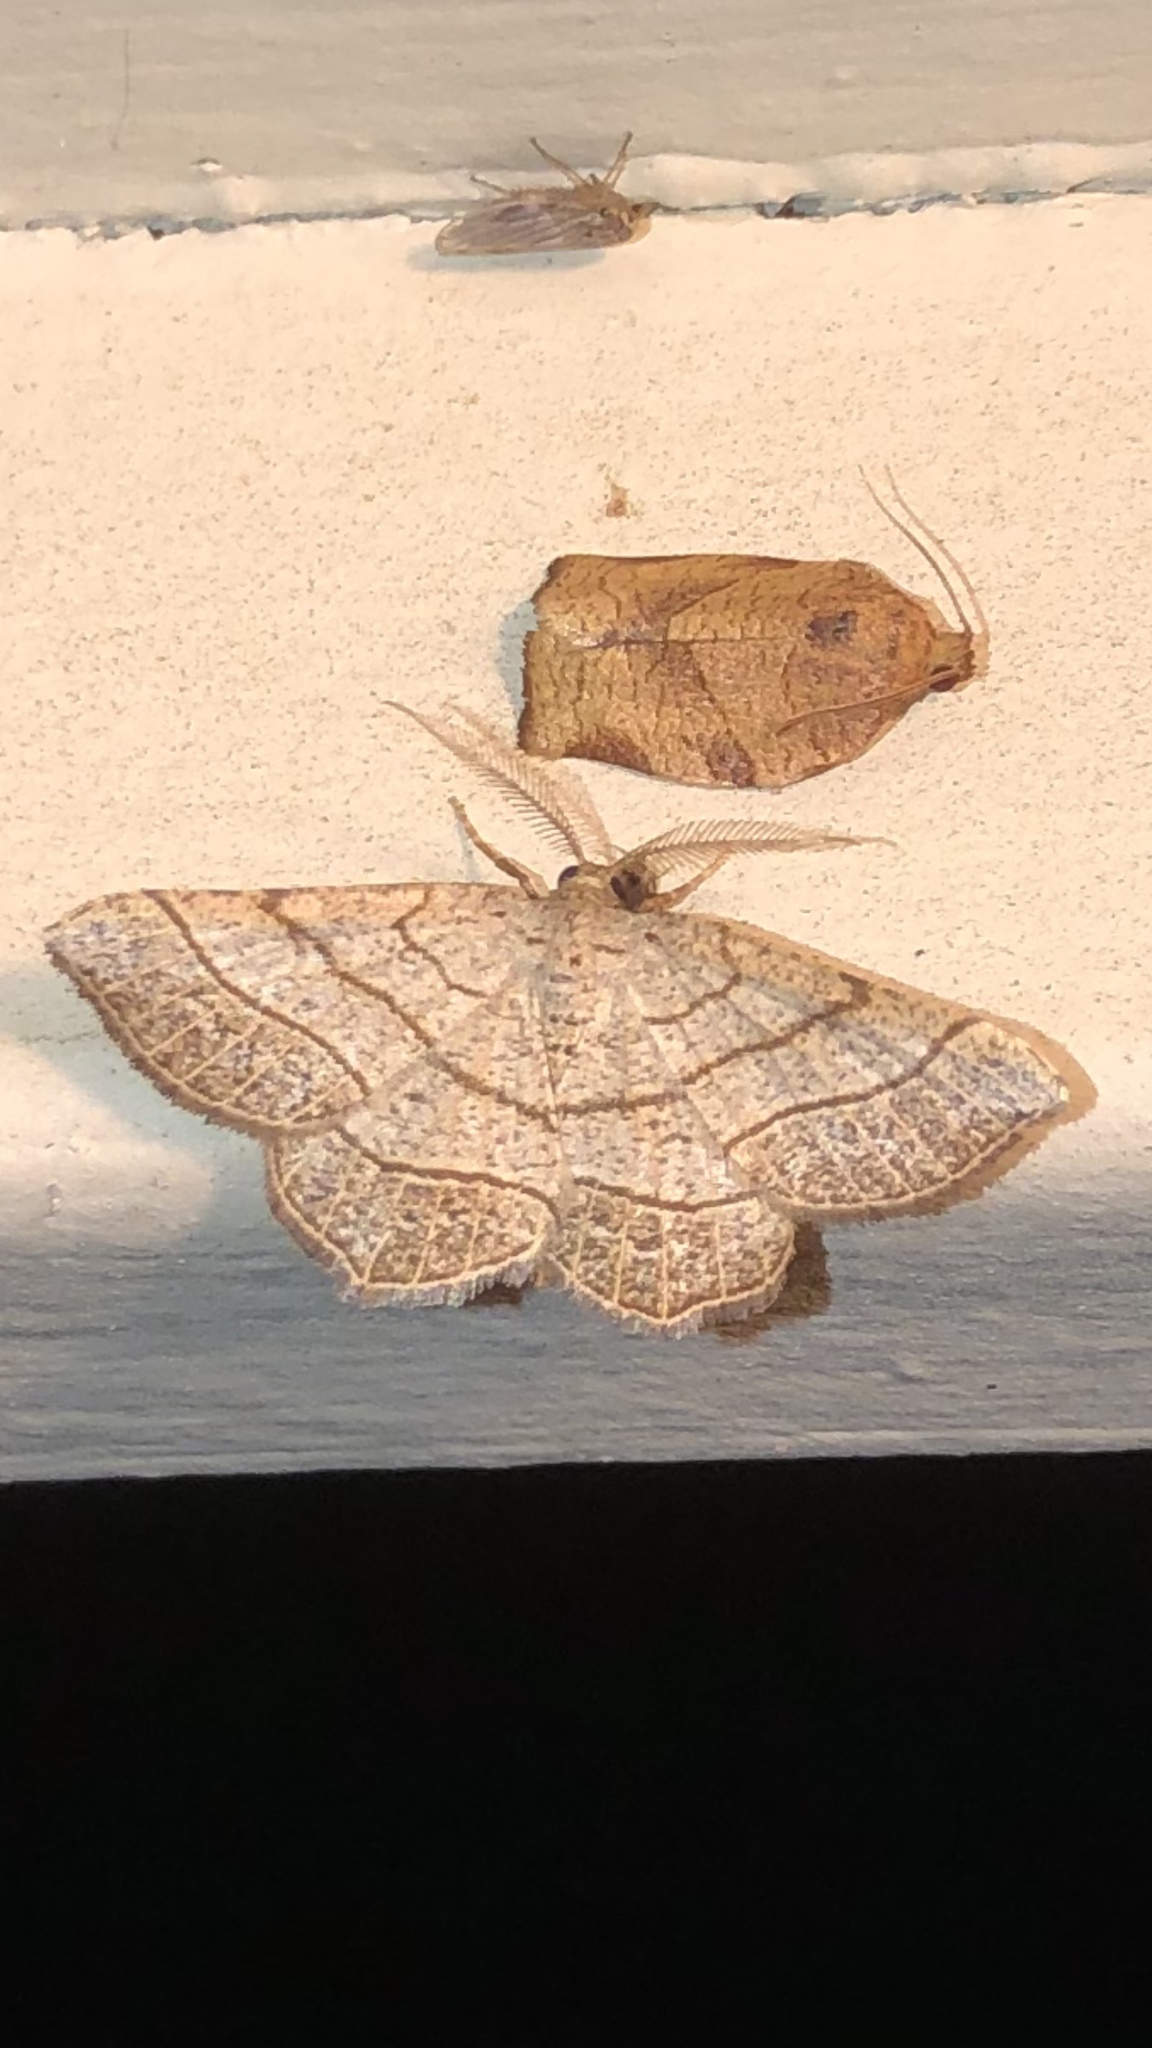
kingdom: Animalia
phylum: Arthropoda
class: Insecta
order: Lepidoptera
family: Geometridae
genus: Eumacaria
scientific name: Eumacaria madopata
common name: Brown-bordered geometer
